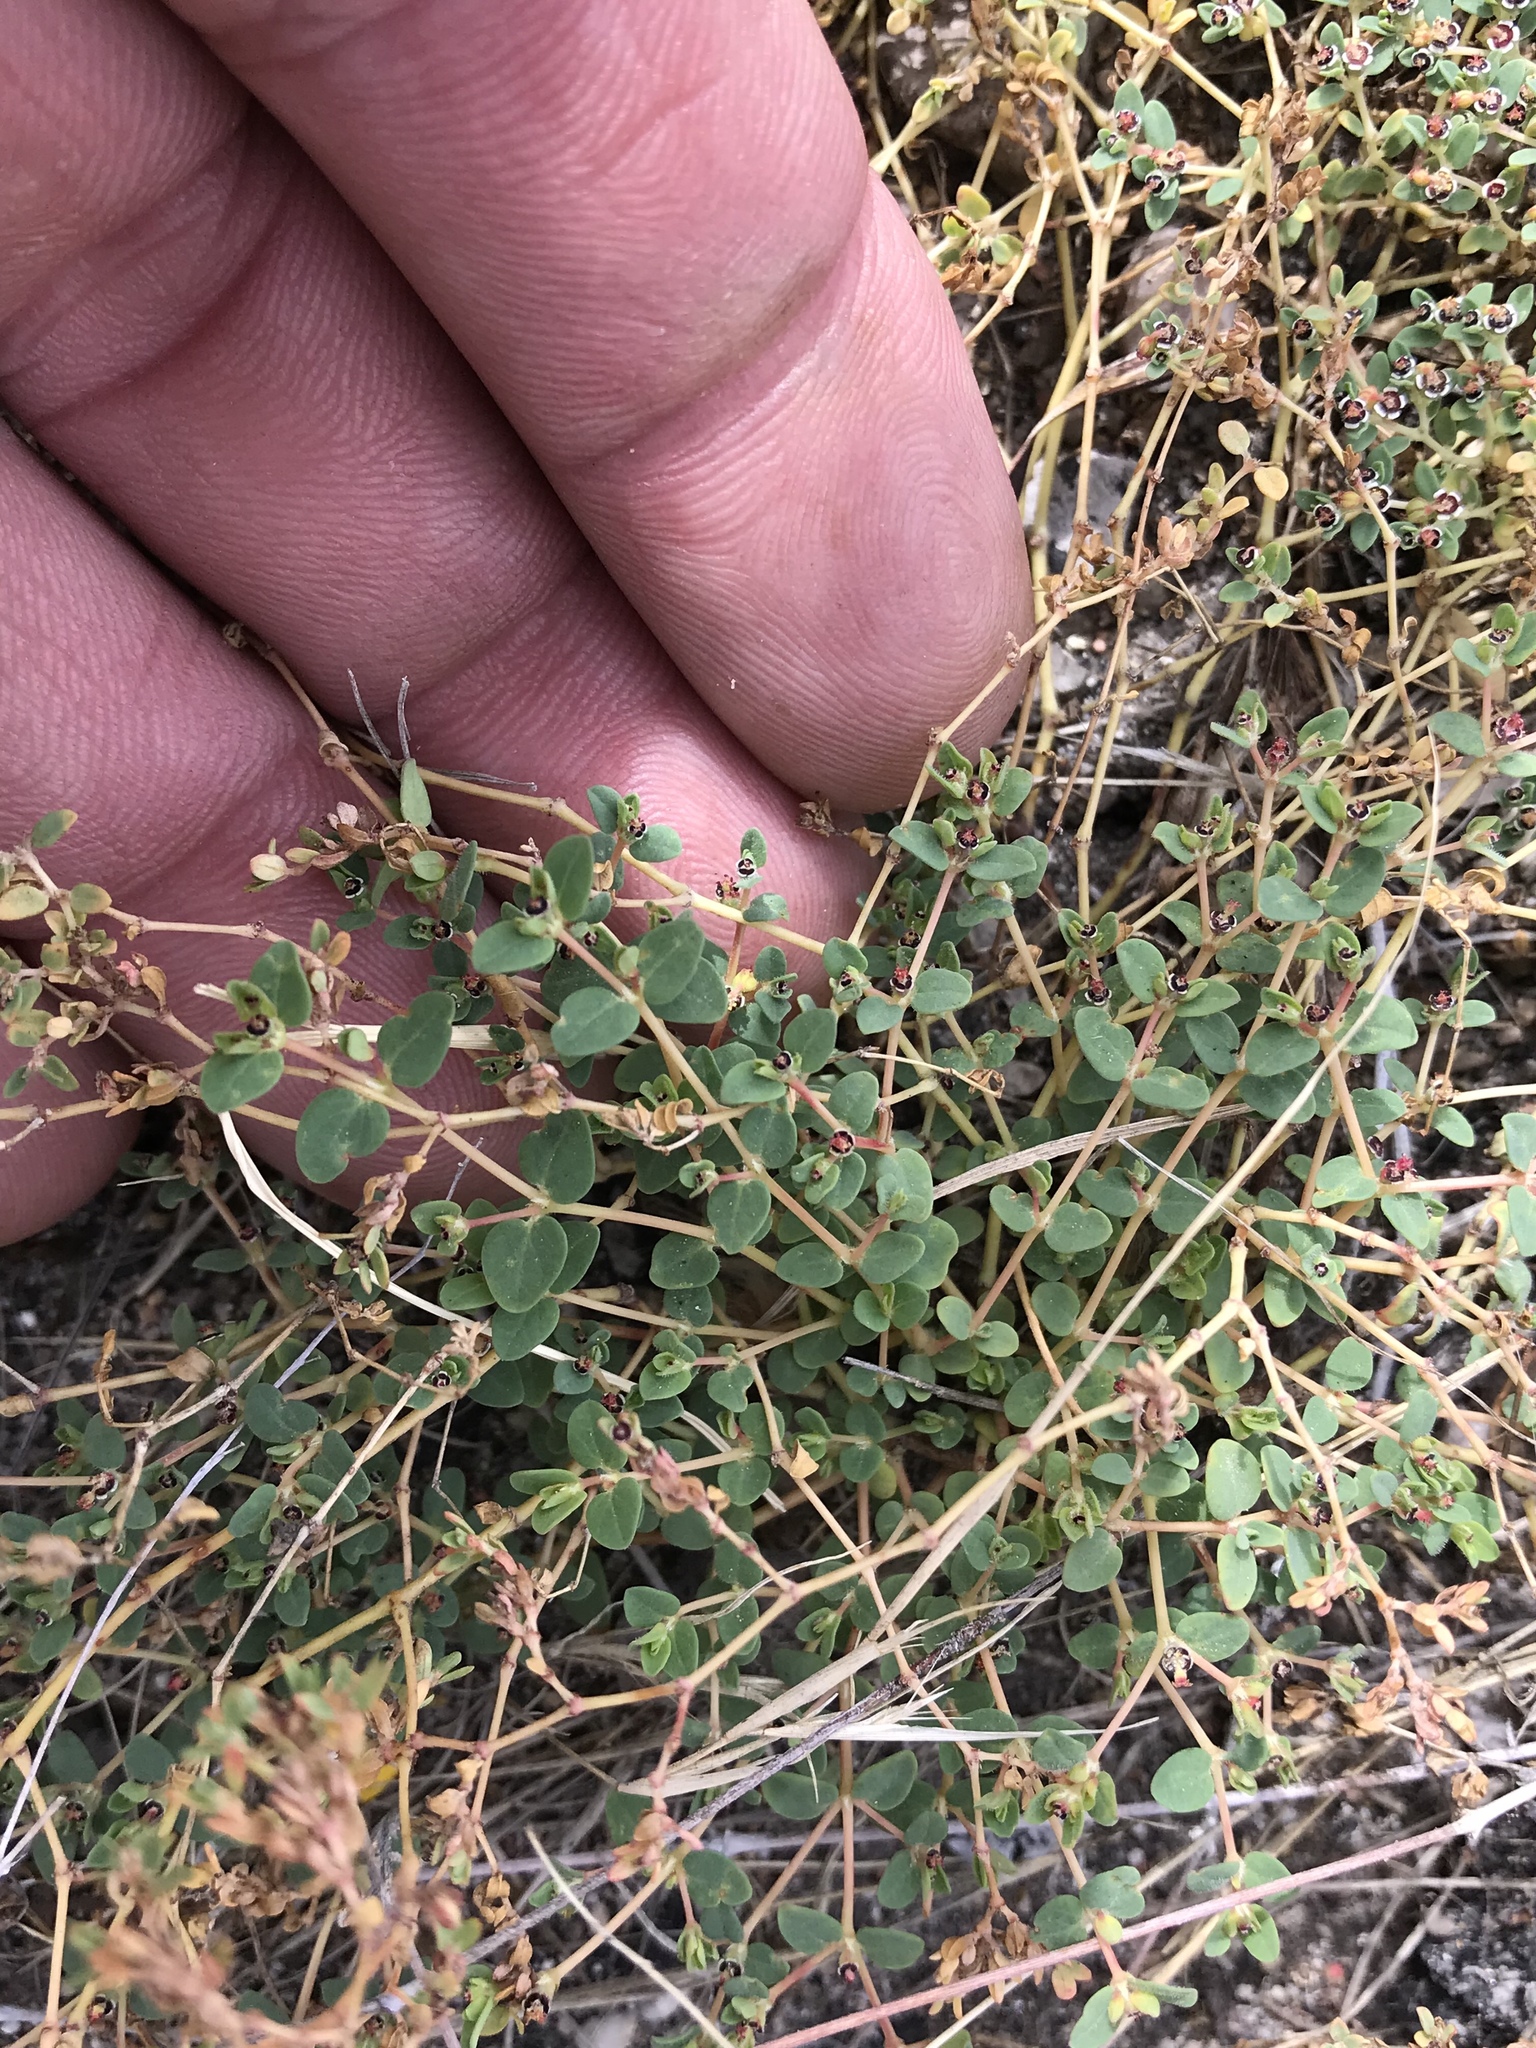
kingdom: Plantae
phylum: Tracheophyta
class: Magnoliopsida
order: Malpighiales
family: Euphorbiaceae
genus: Euphorbia
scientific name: Euphorbia polycarpa
